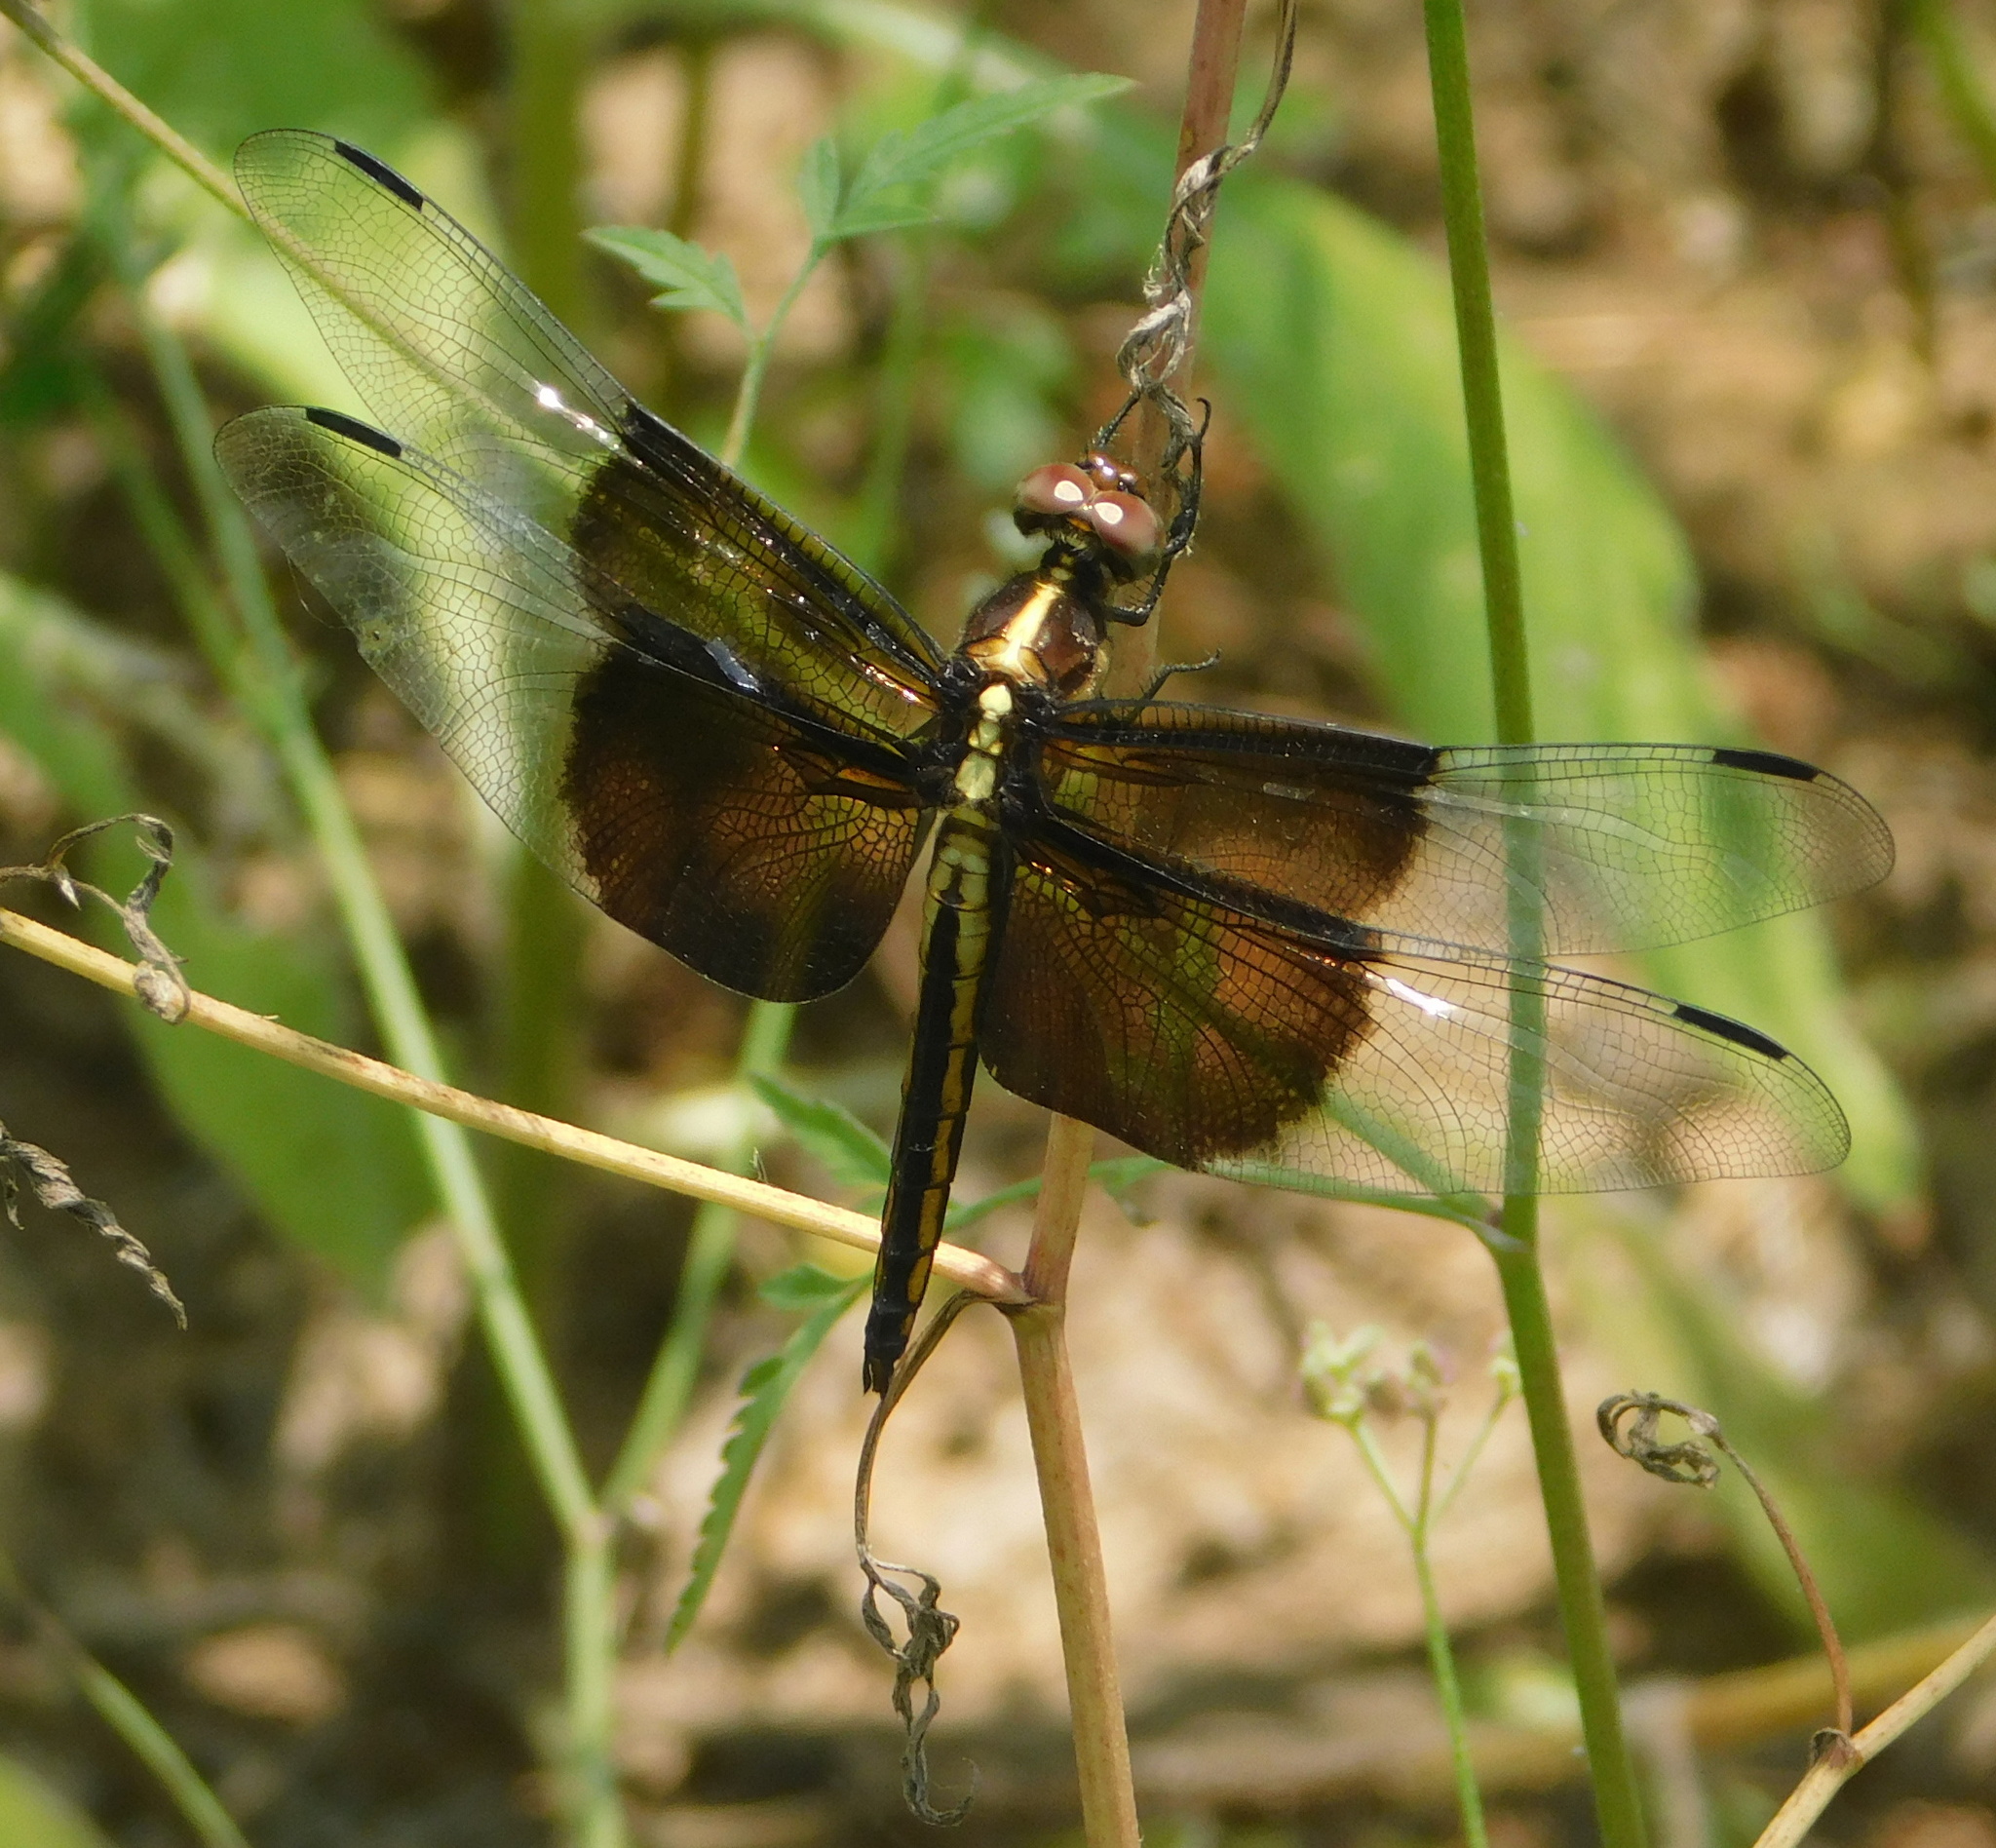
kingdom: Animalia
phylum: Arthropoda
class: Insecta
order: Odonata
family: Libellulidae
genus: Libellula
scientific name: Libellula luctuosa
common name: Widow skimmer
